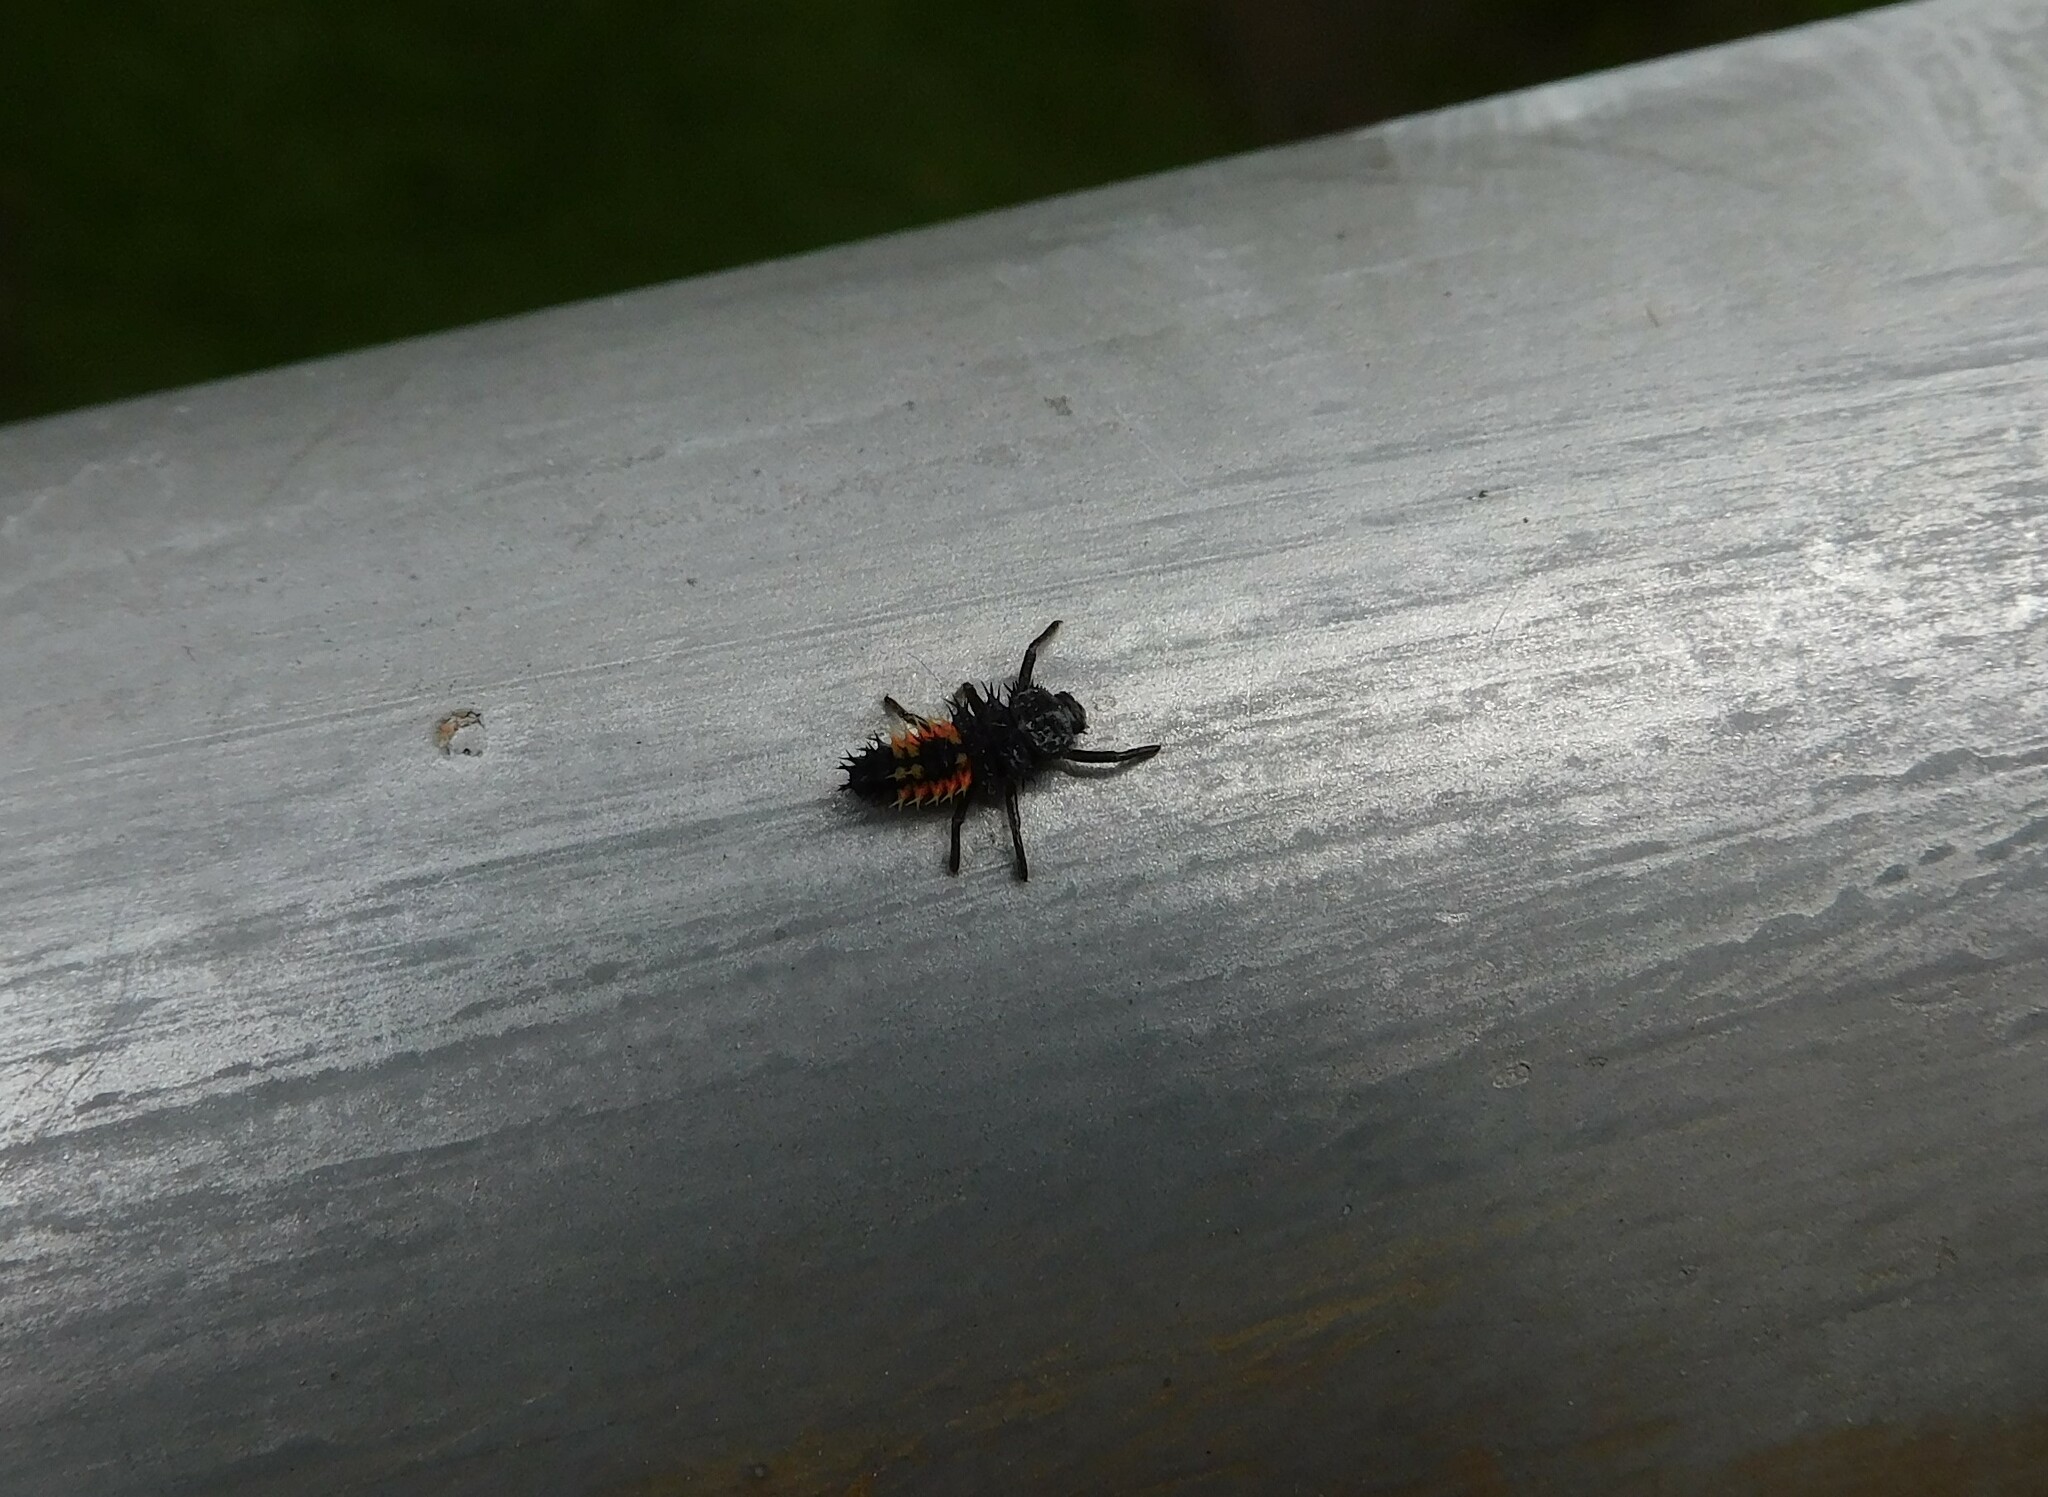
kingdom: Animalia
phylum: Arthropoda
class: Insecta
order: Coleoptera
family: Coccinellidae
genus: Harmonia
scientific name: Harmonia axyridis
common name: Harlequin ladybird
